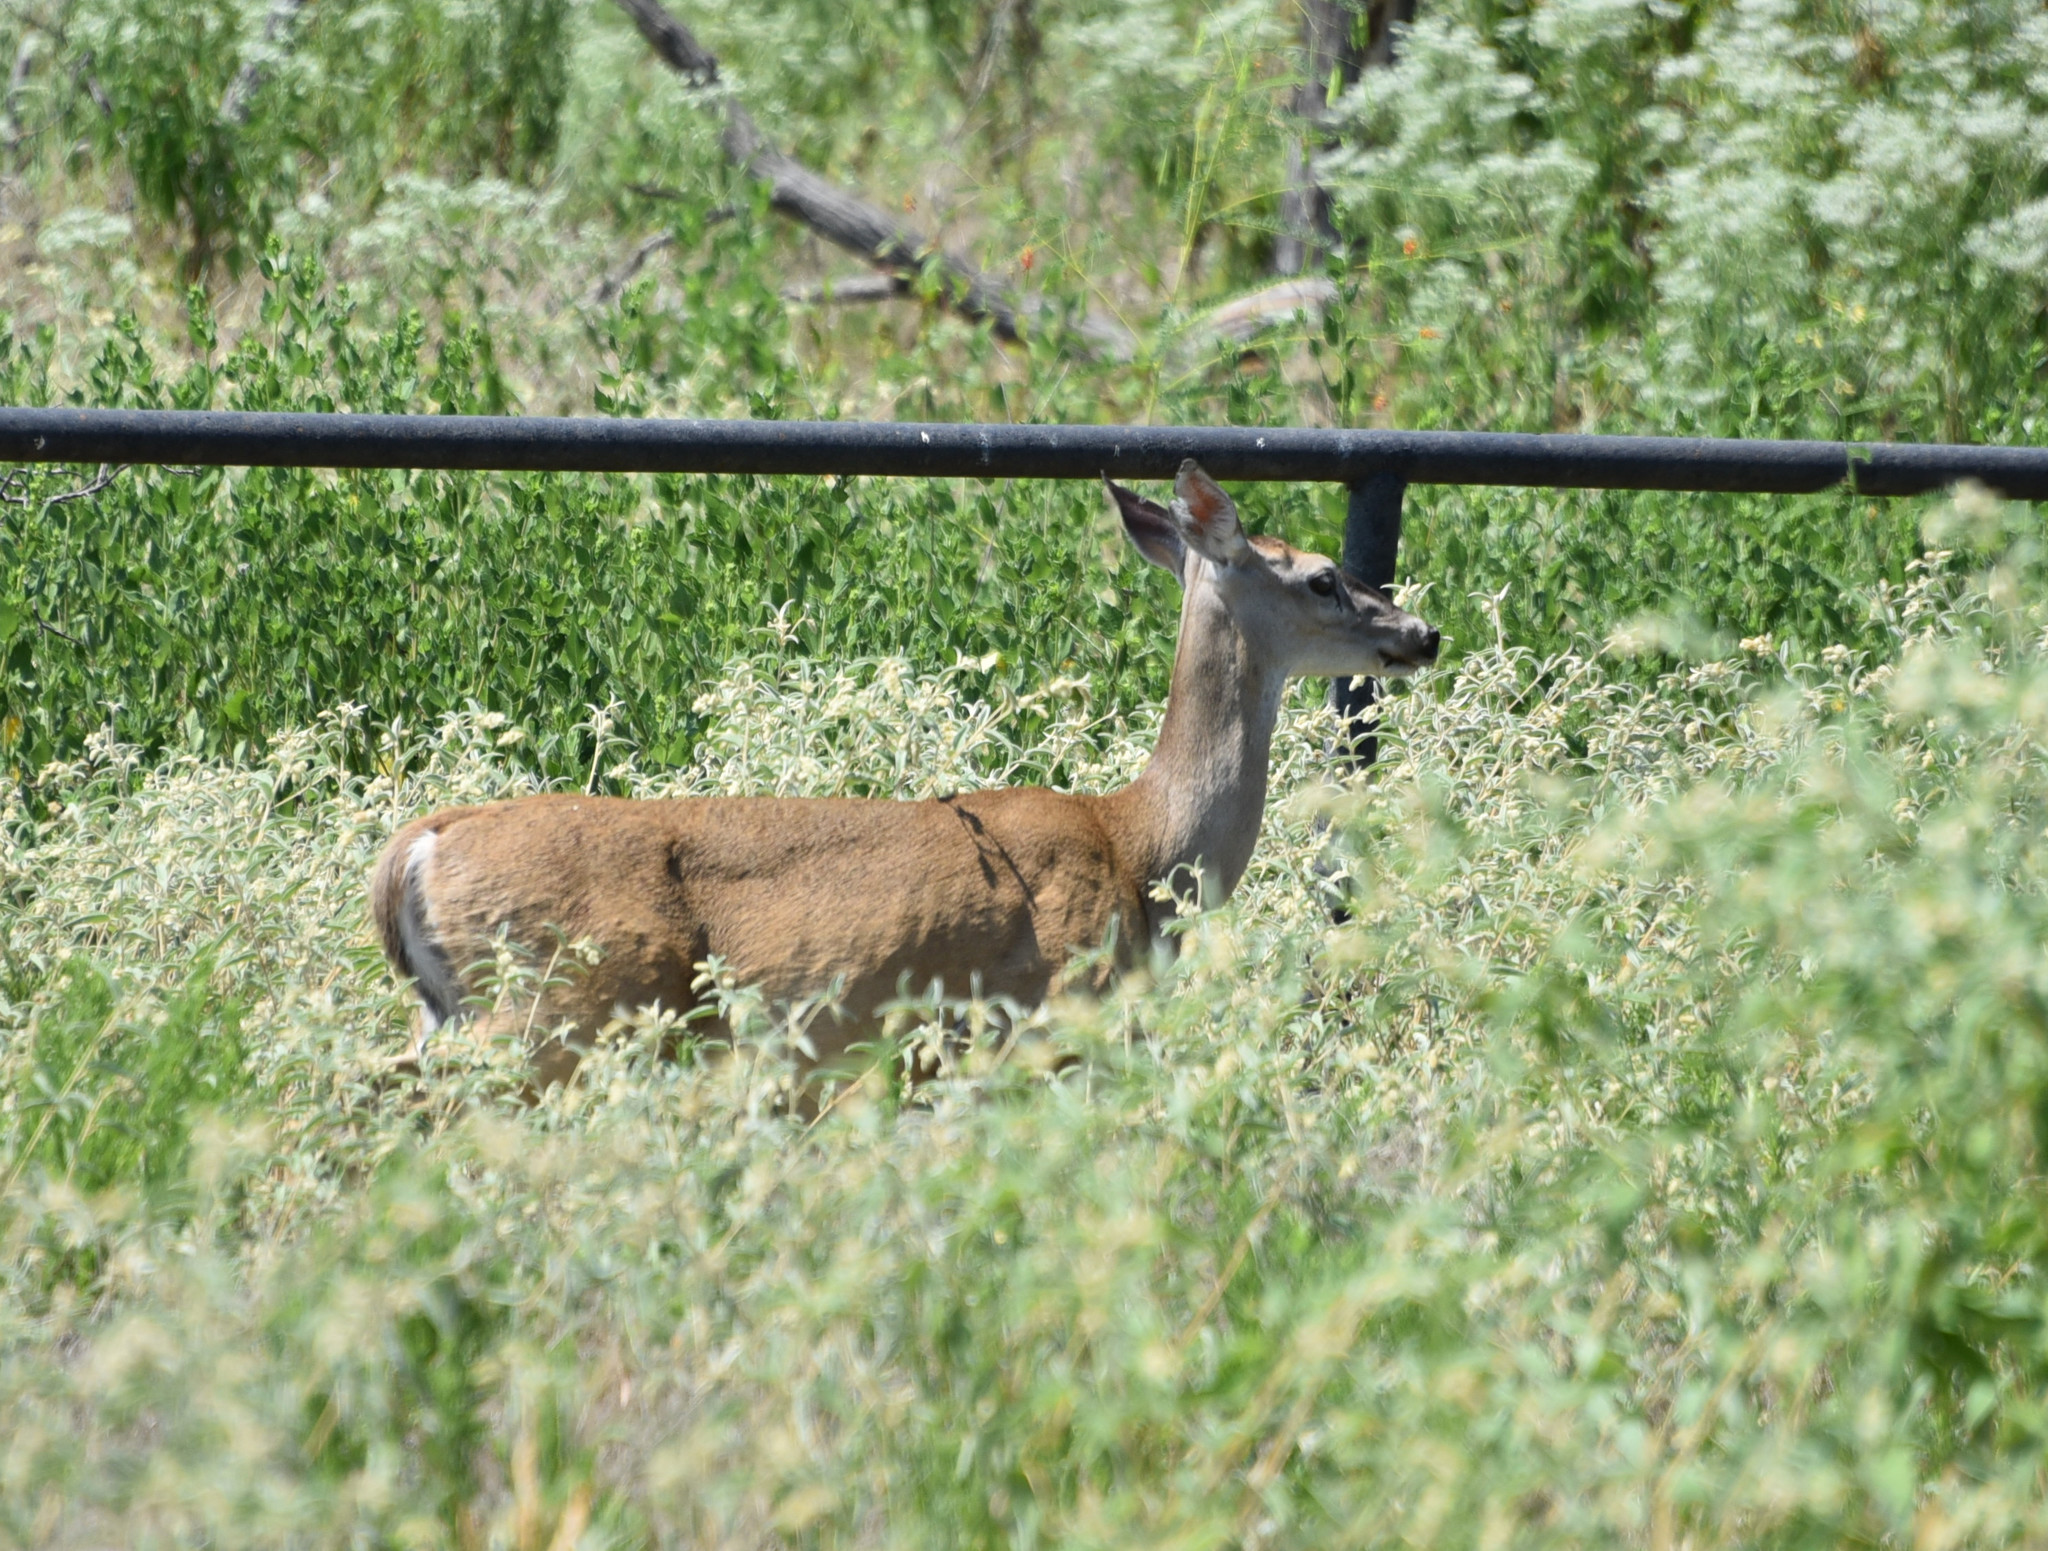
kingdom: Animalia
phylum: Chordata
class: Mammalia
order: Artiodactyla
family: Cervidae
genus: Odocoileus
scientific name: Odocoileus virginianus
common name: White-tailed deer
